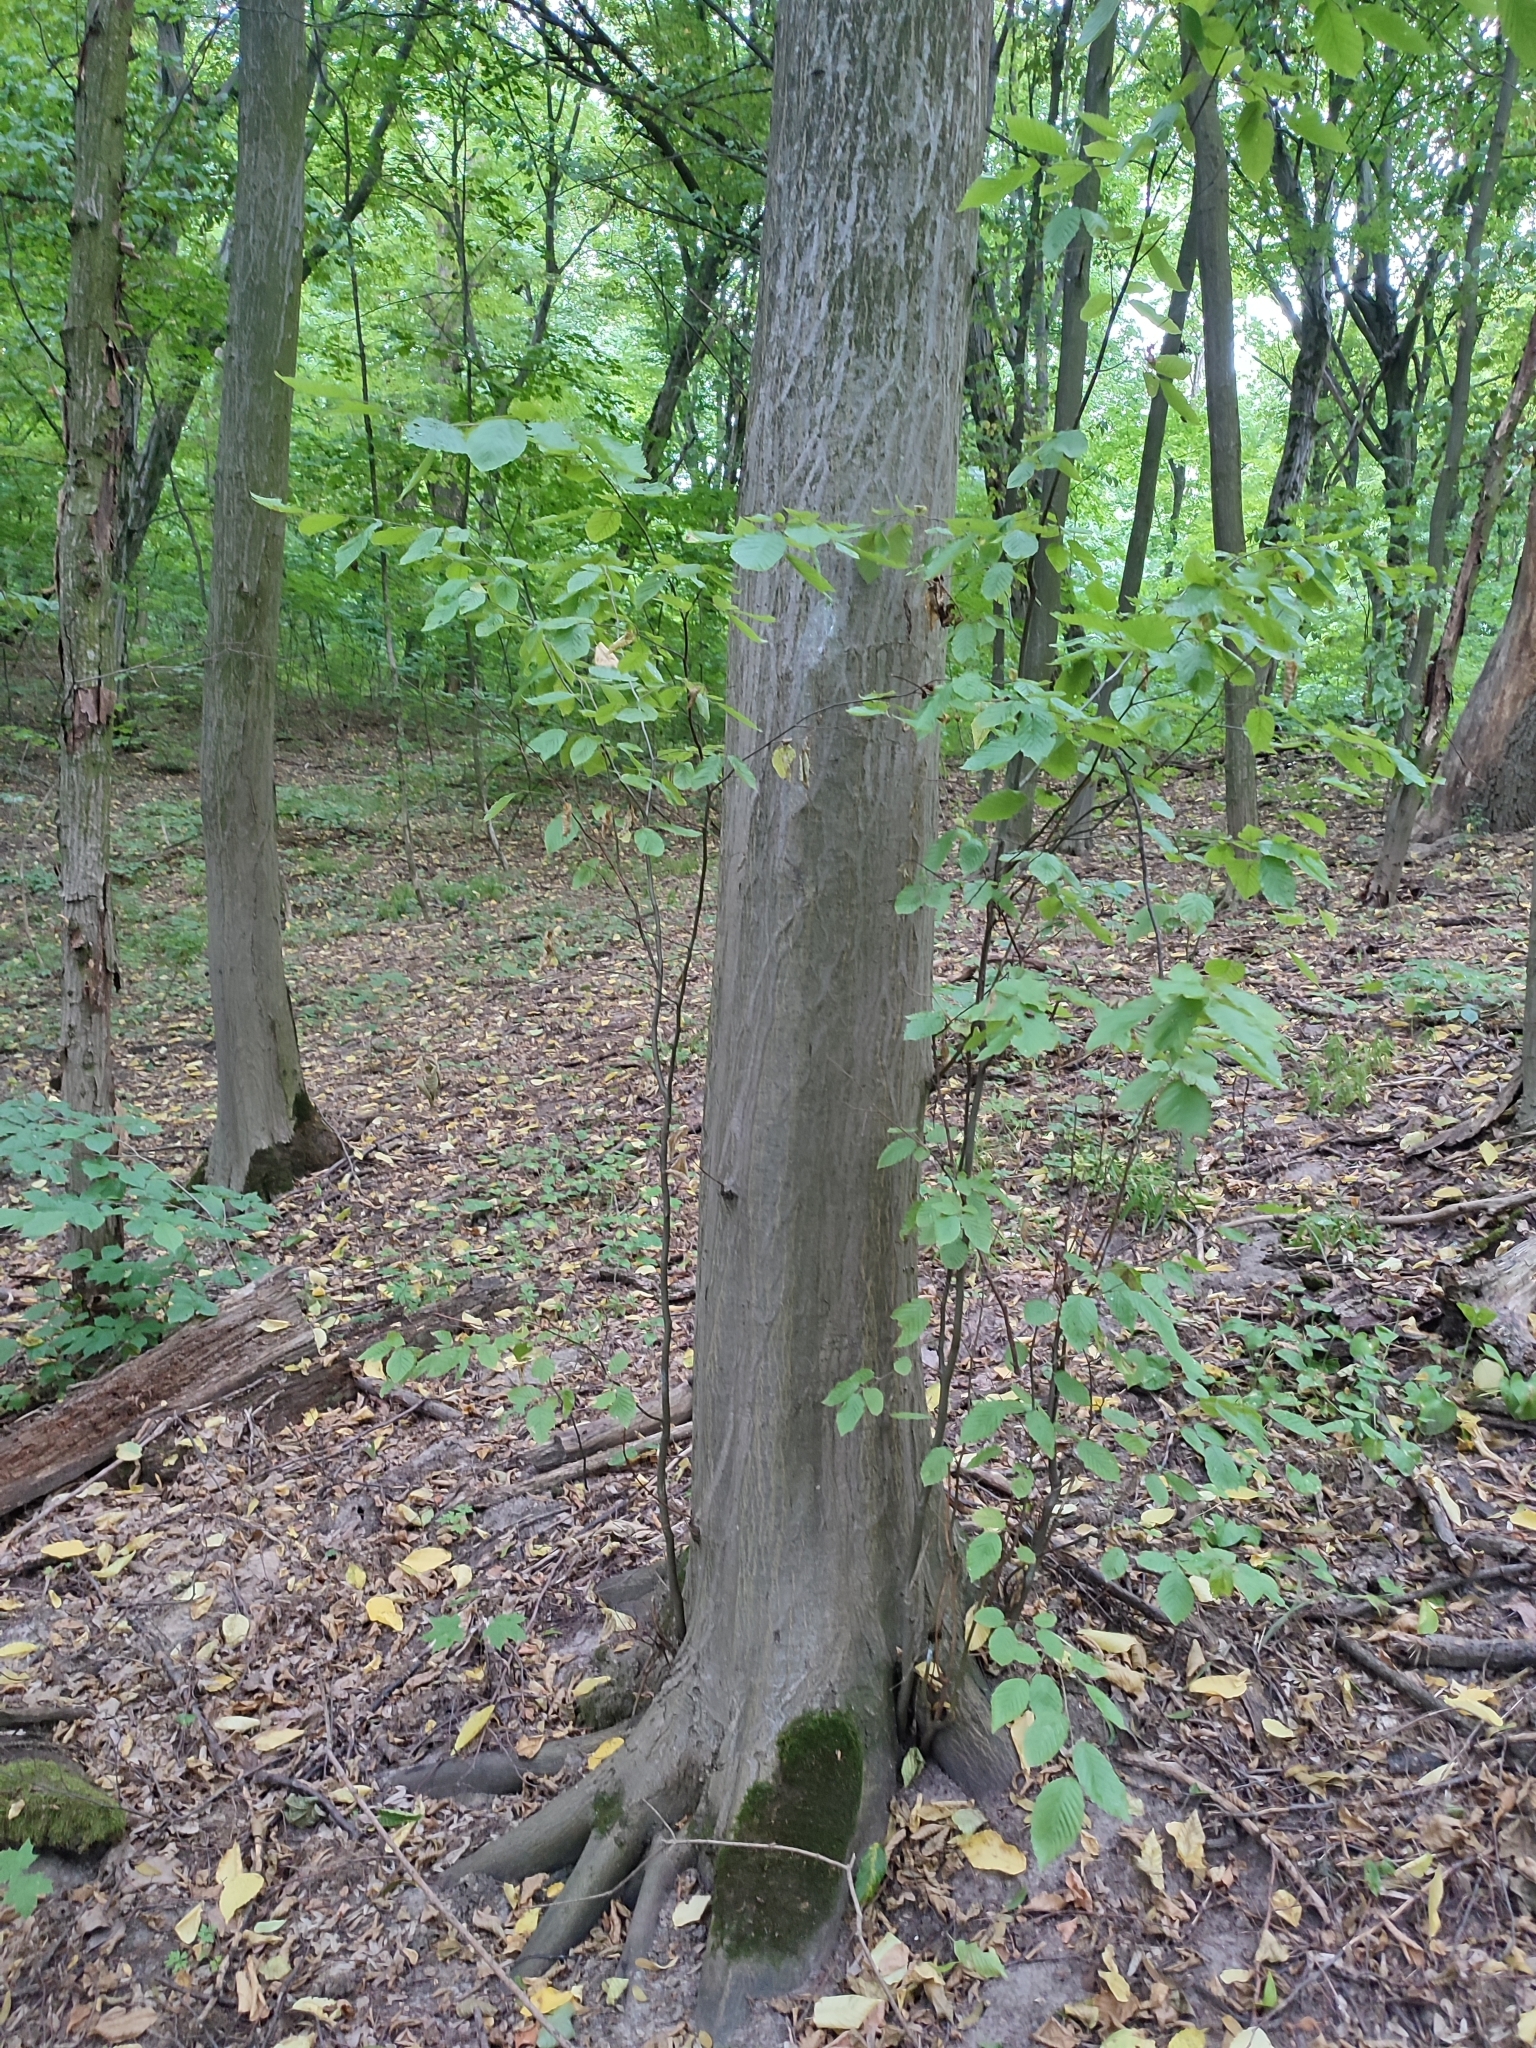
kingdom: Plantae
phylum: Tracheophyta
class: Magnoliopsida
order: Fagales
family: Betulaceae
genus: Carpinus
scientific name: Carpinus betulus
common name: Hornbeam
